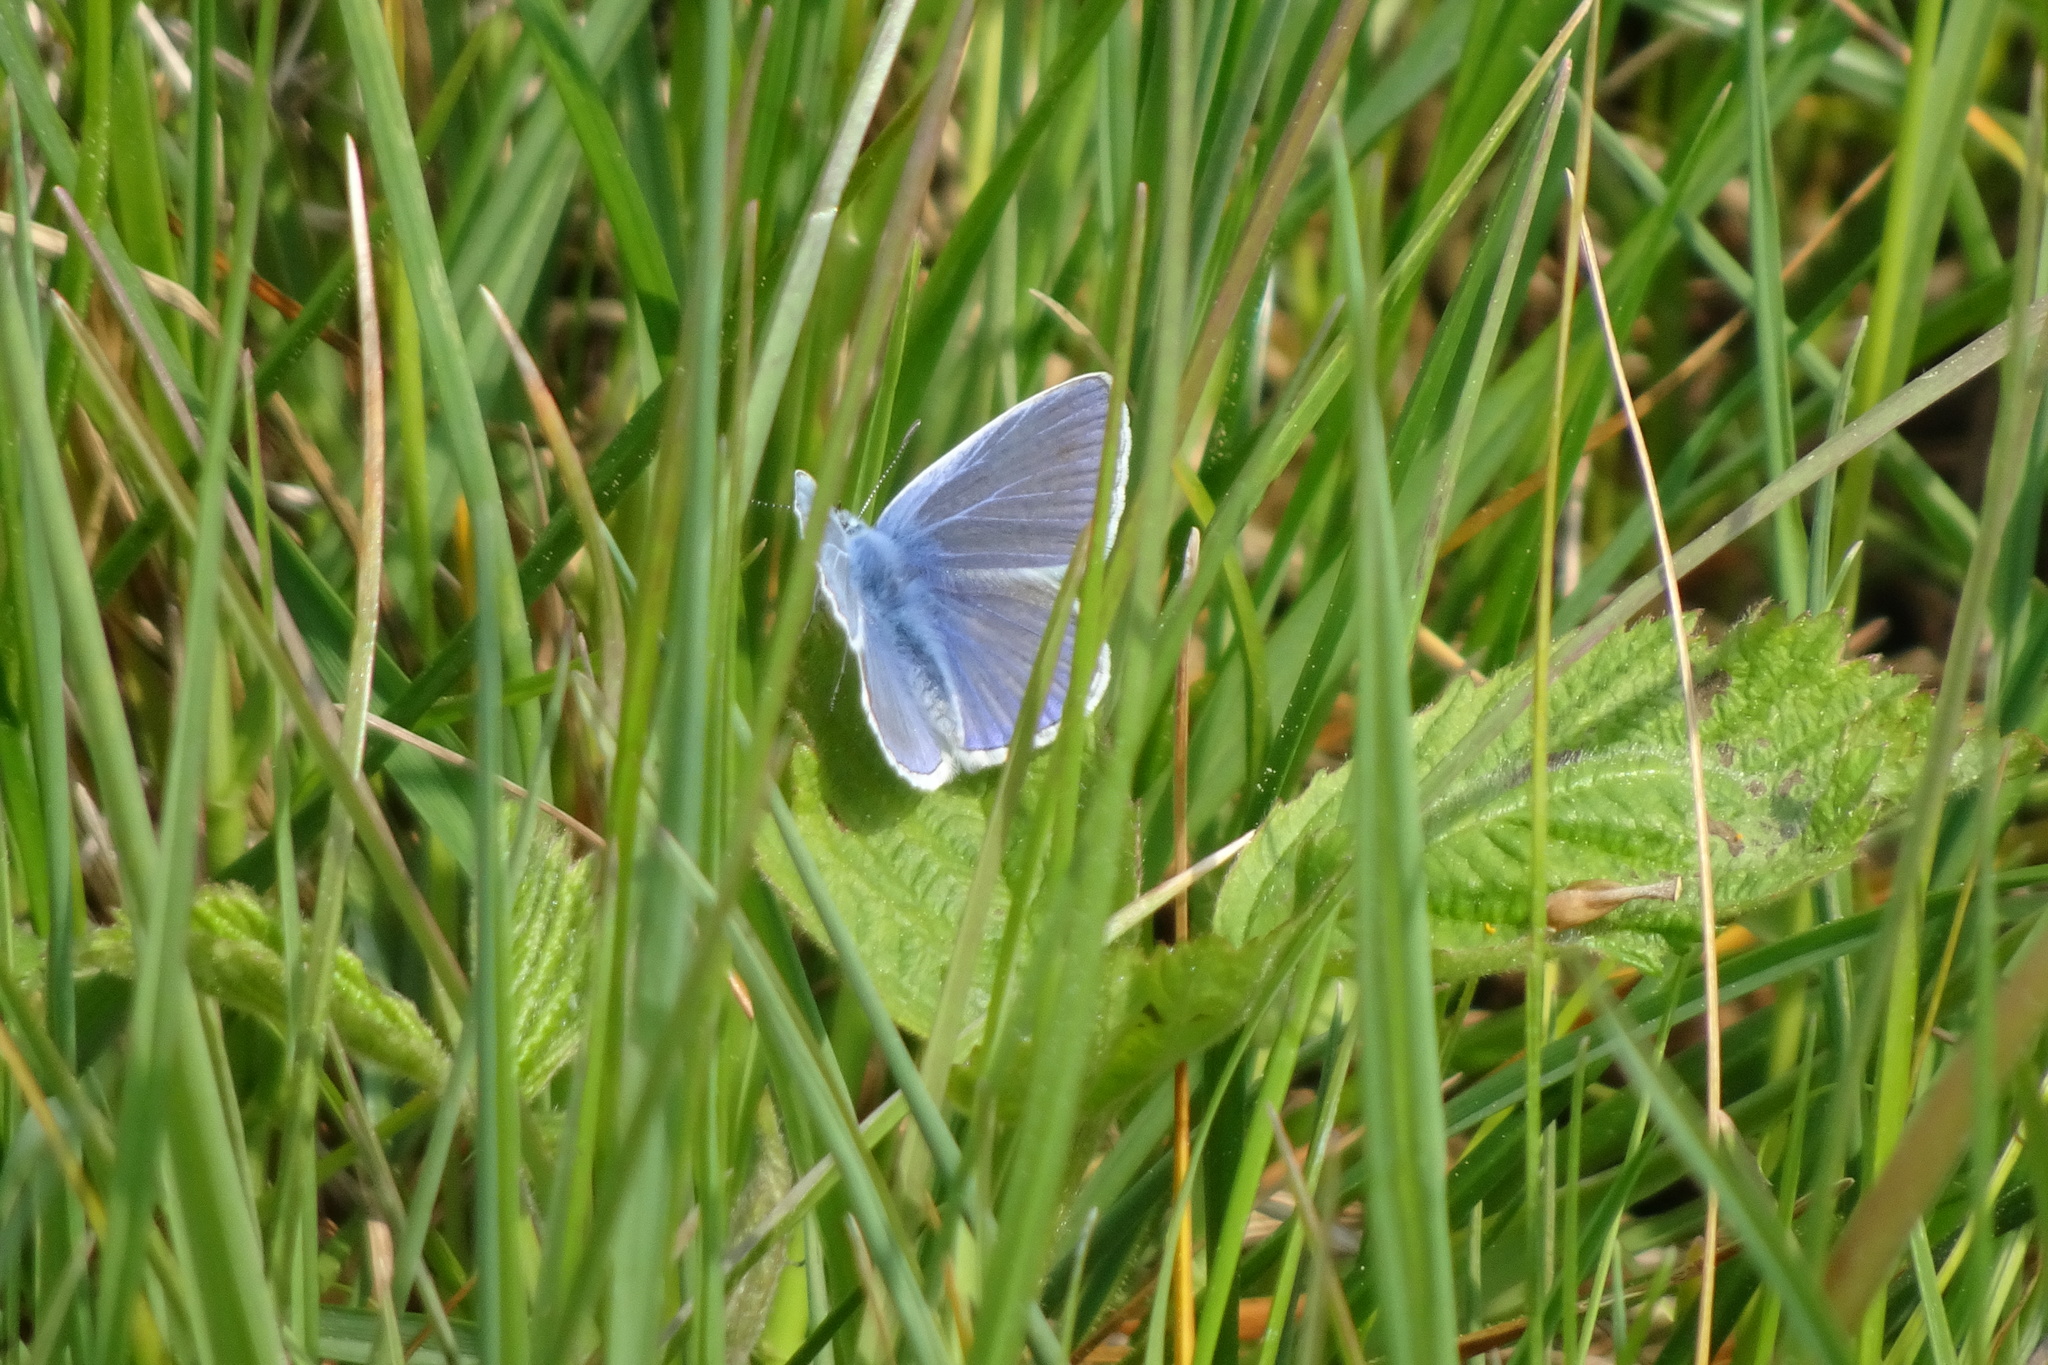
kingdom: Animalia
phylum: Arthropoda
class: Insecta
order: Lepidoptera
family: Lycaenidae
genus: Polyommatus
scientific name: Polyommatus icarus
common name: Common blue
